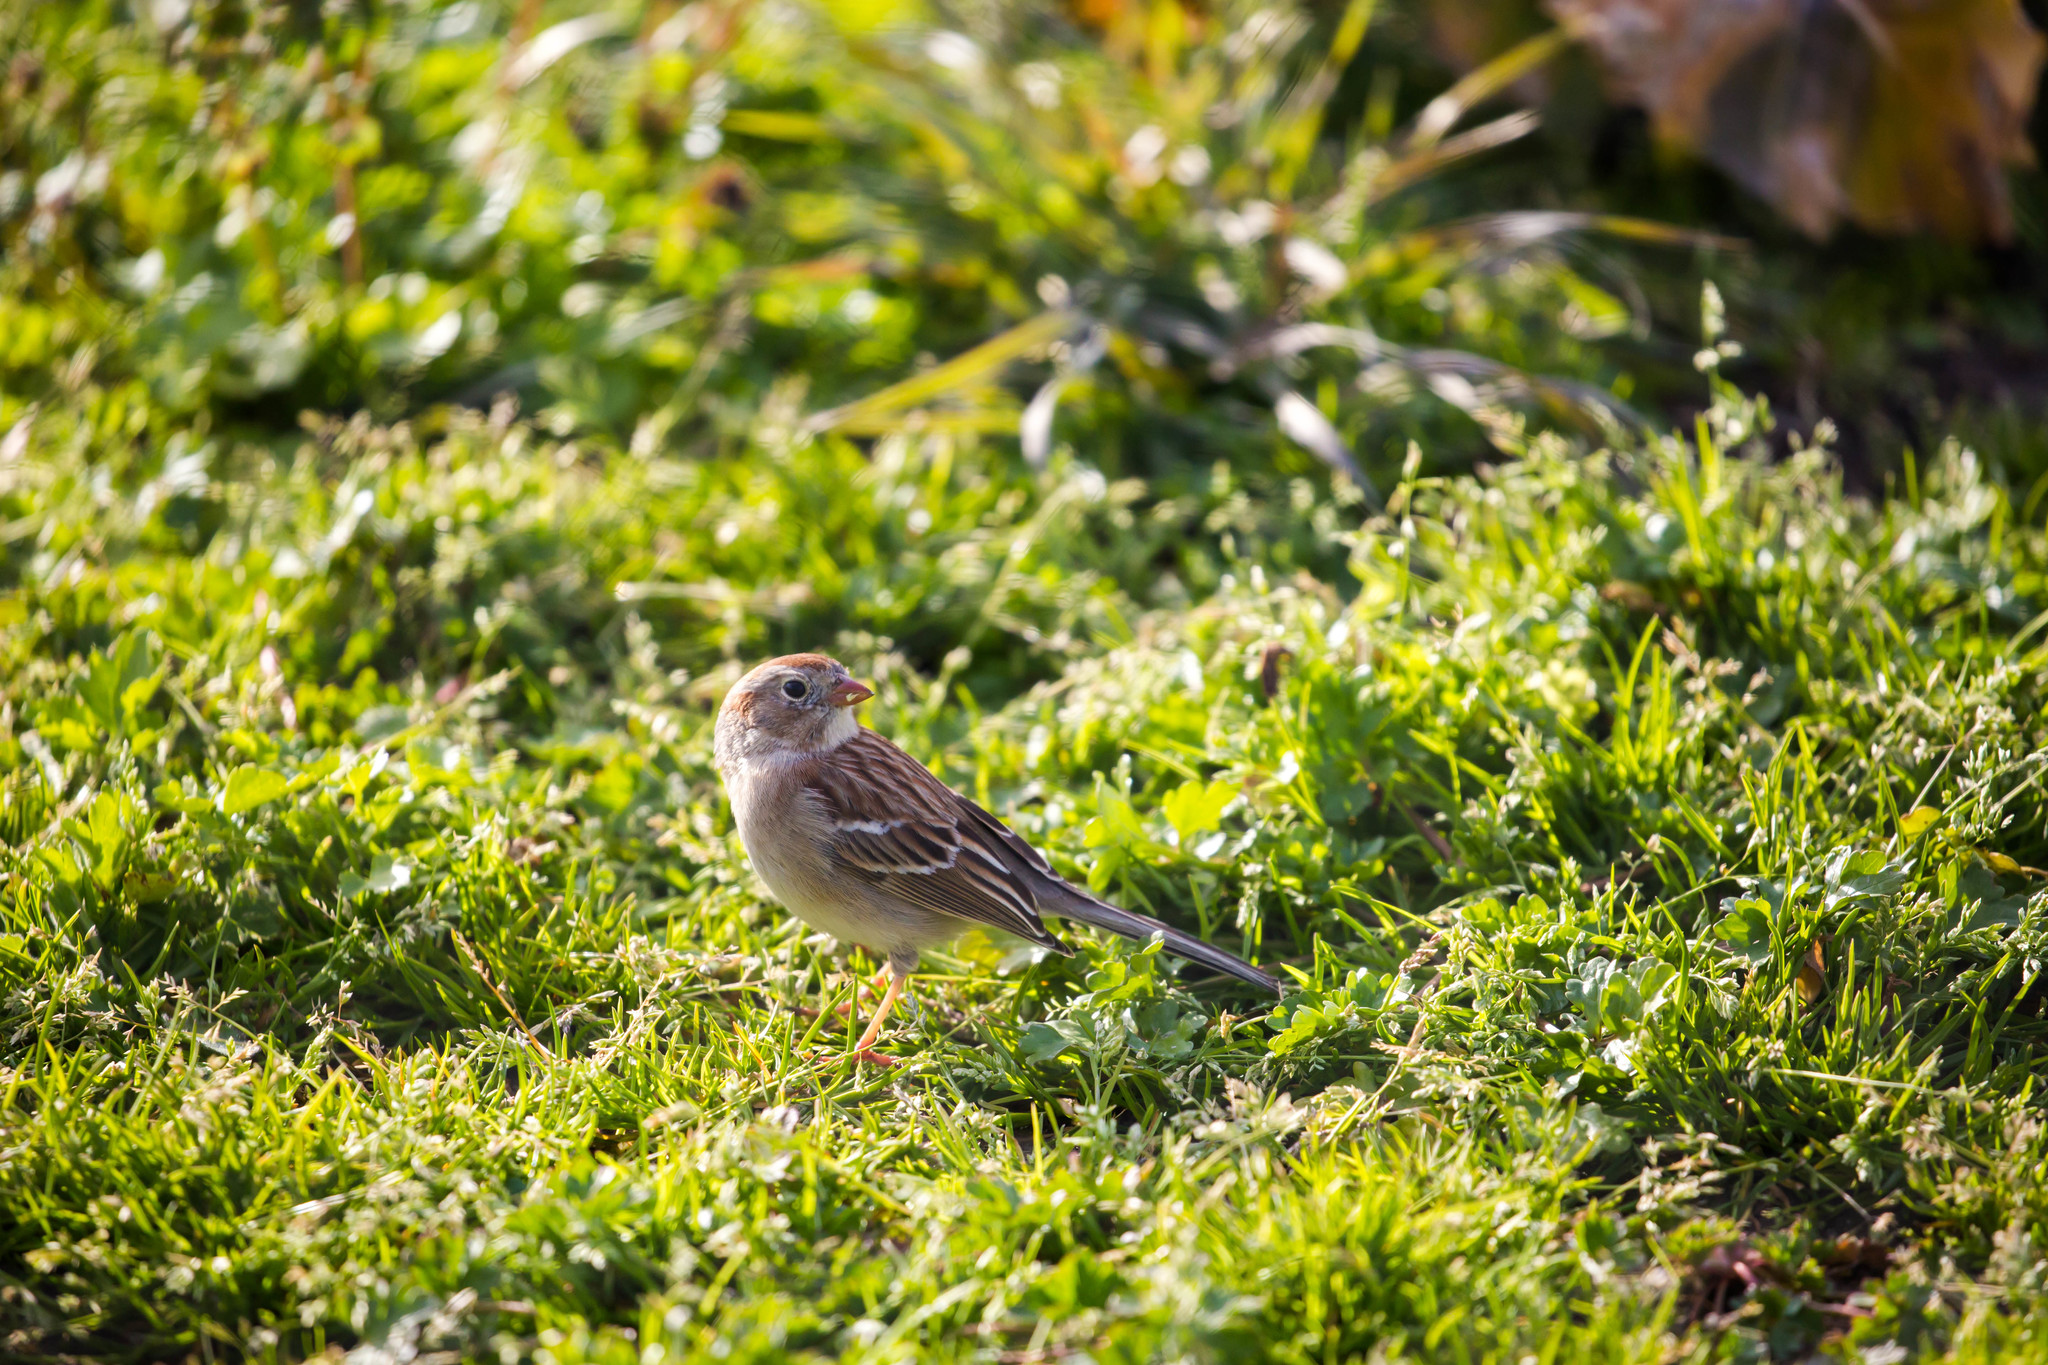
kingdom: Animalia
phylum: Chordata
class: Aves
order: Passeriformes
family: Passerellidae
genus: Spizella
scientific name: Spizella pusilla
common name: Field sparrow
